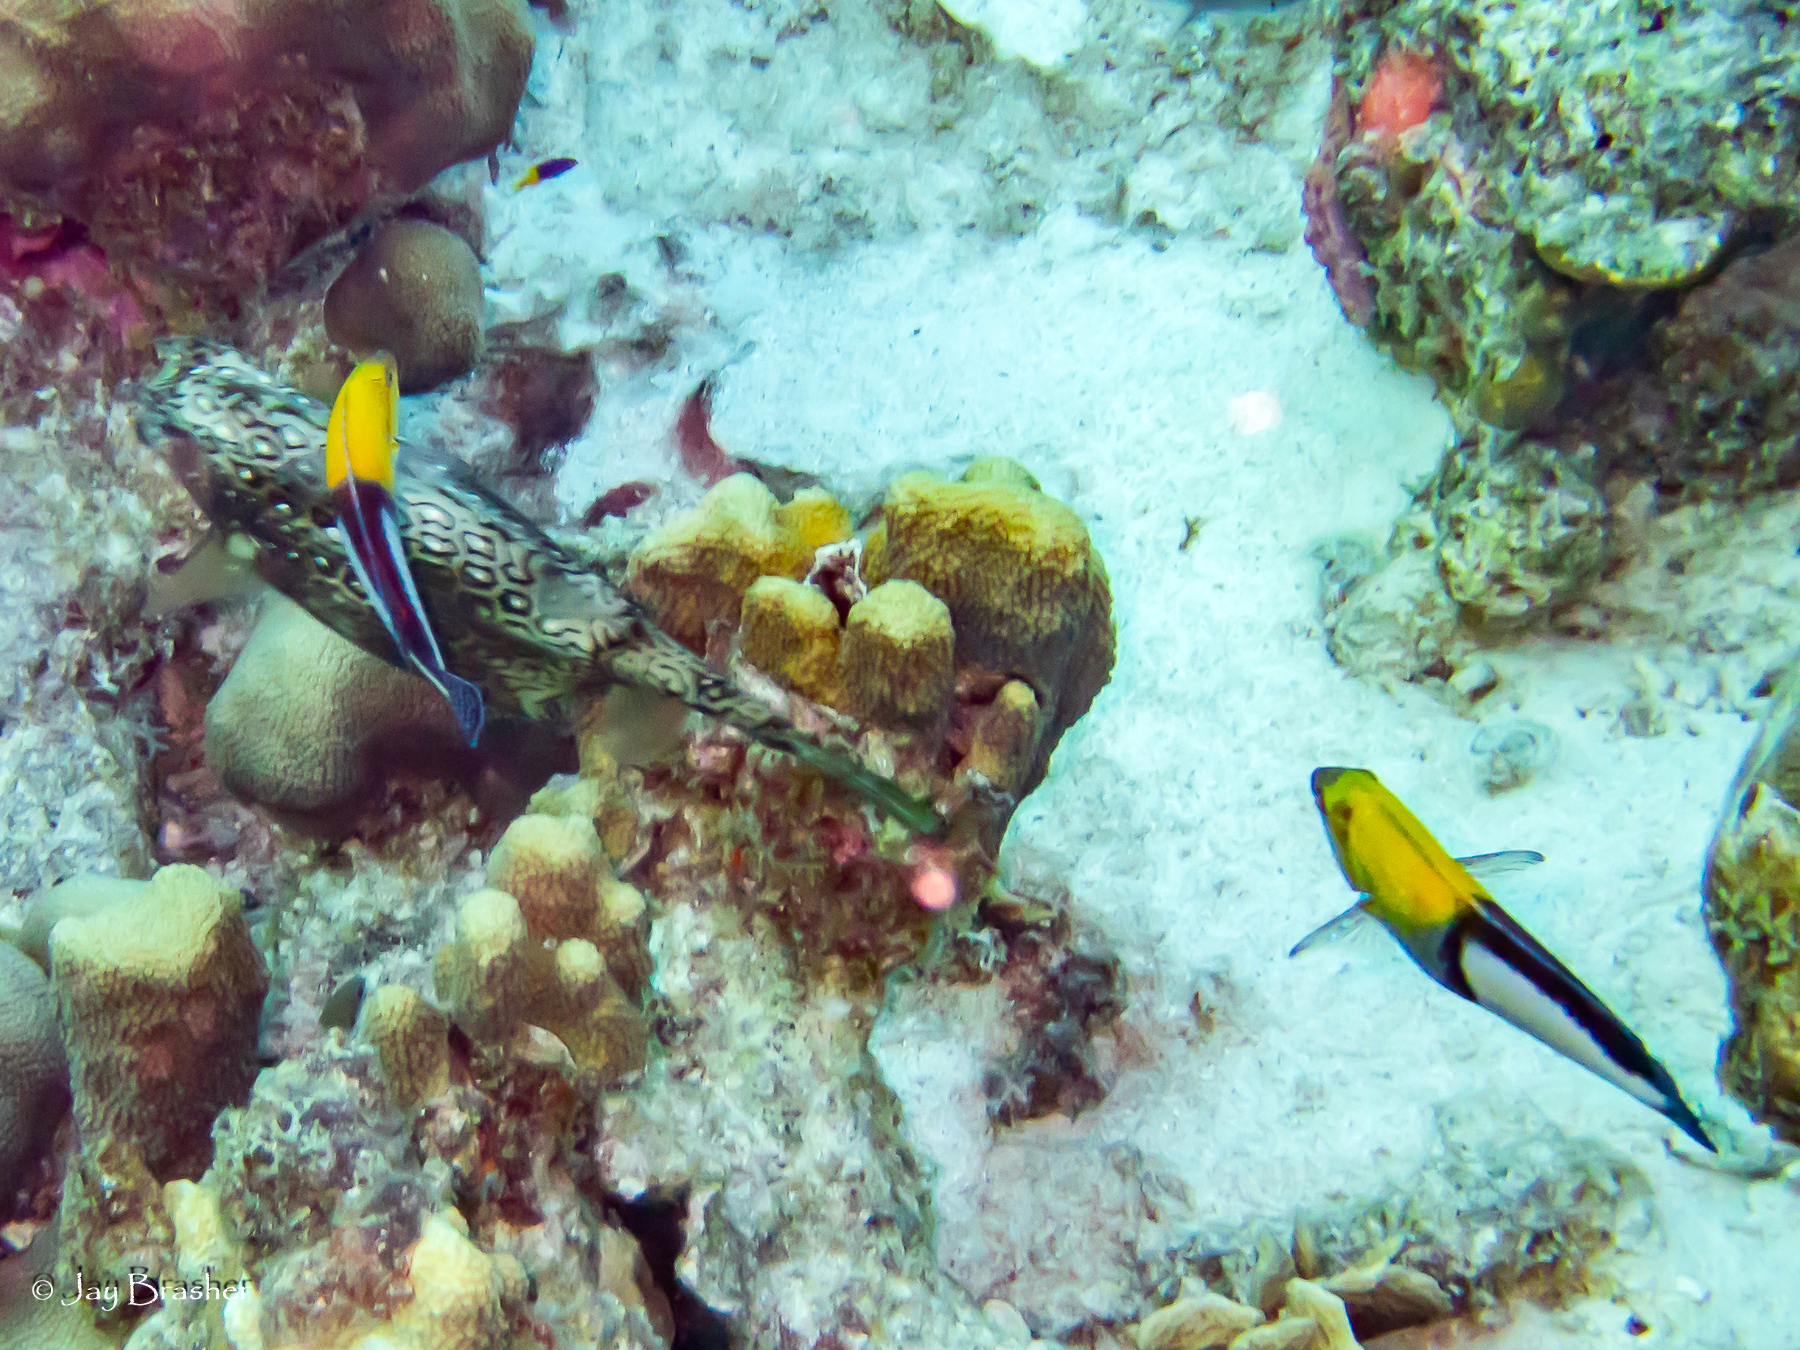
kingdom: Animalia
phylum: Chordata
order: Tetraodontiformes
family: Ostraciidae
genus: Acanthostracion
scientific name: Acanthostracion polygonius
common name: Honeycomb cowfish
